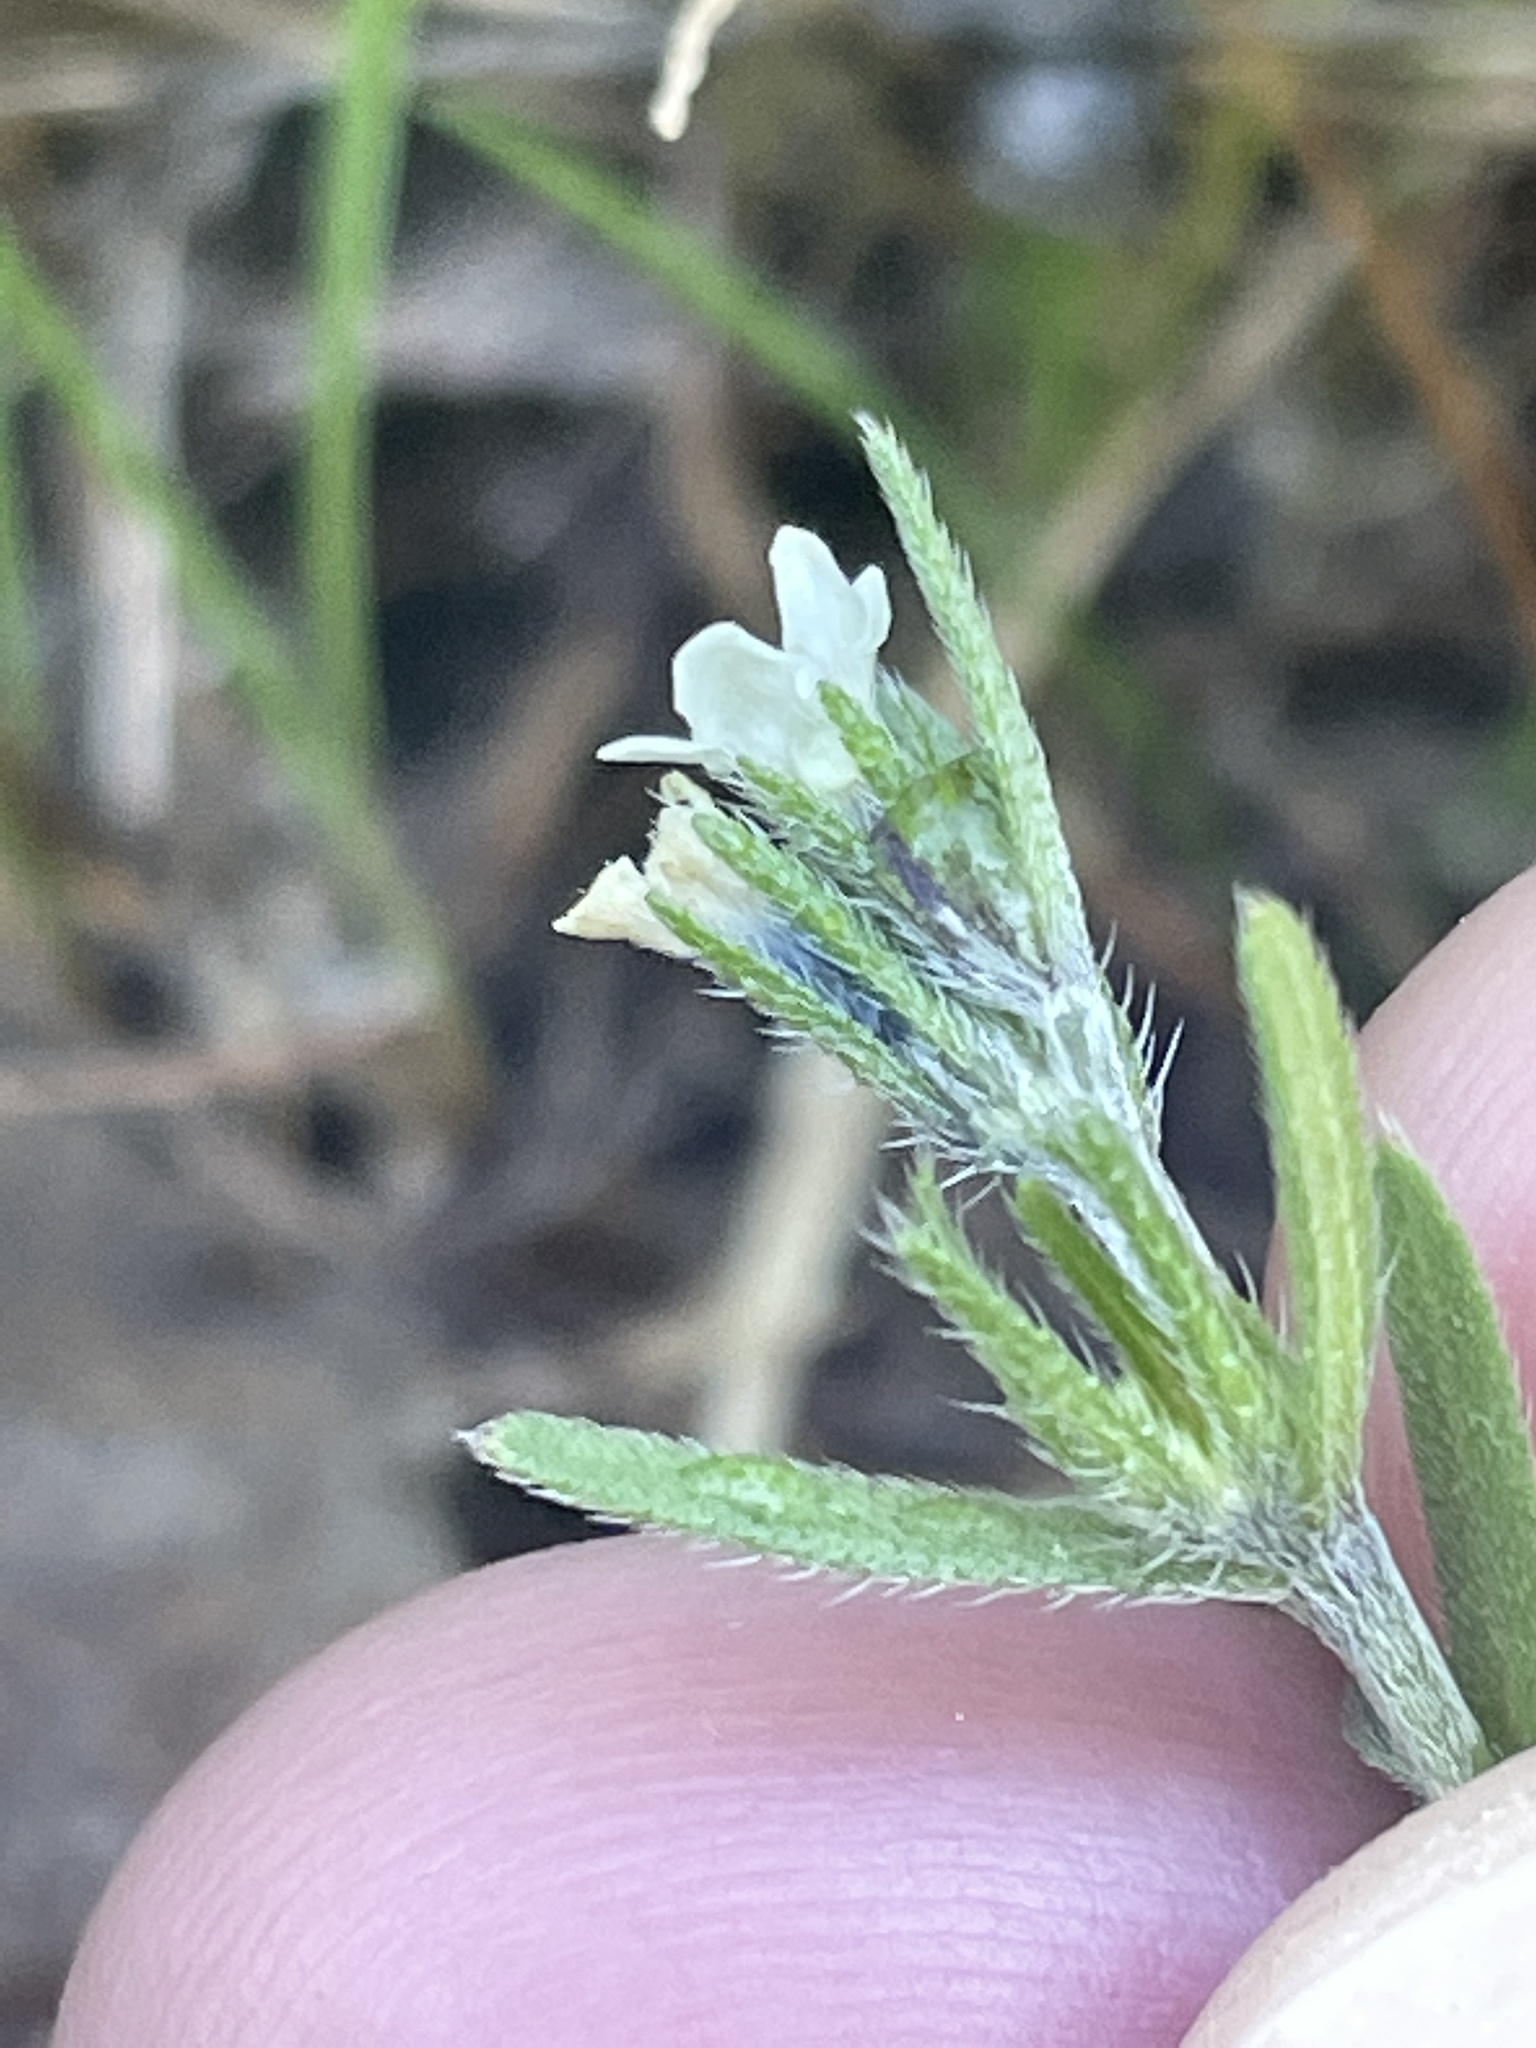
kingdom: Plantae
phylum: Tracheophyta
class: Magnoliopsida
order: Boraginales
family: Boraginaceae
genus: Buglossoides
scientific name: Buglossoides arvensis
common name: Corn gromwell
